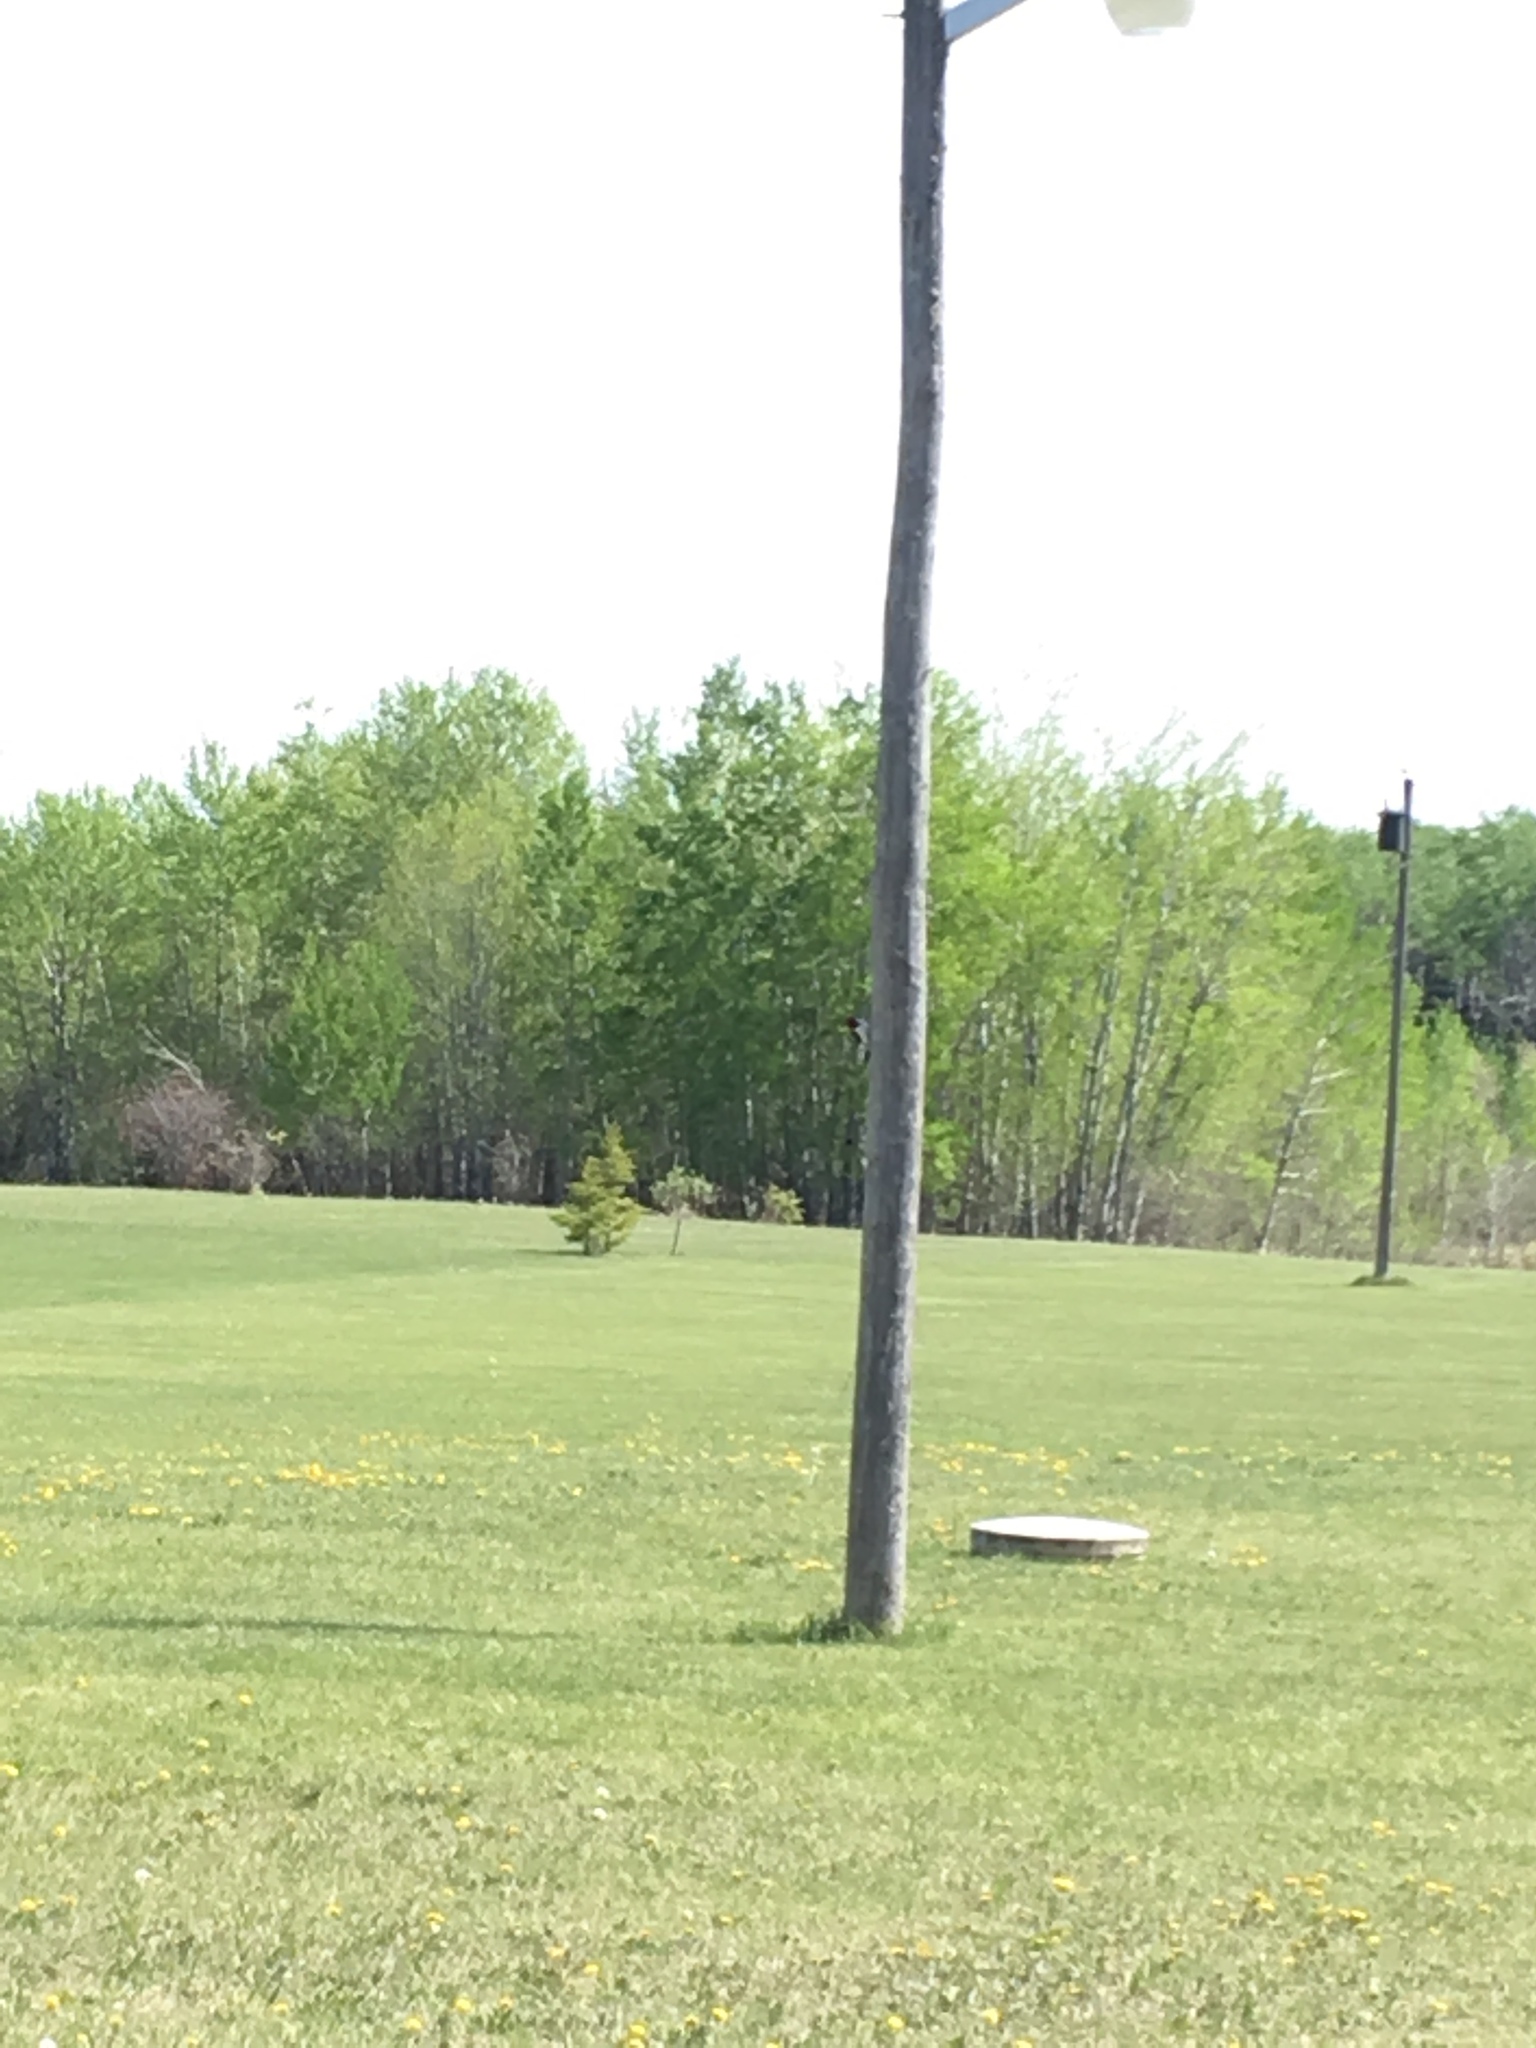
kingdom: Animalia
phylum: Chordata
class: Aves
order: Piciformes
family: Picidae
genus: Melanerpes
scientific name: Melanerpes erythrocephalus
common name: Red-headed woodpecker
